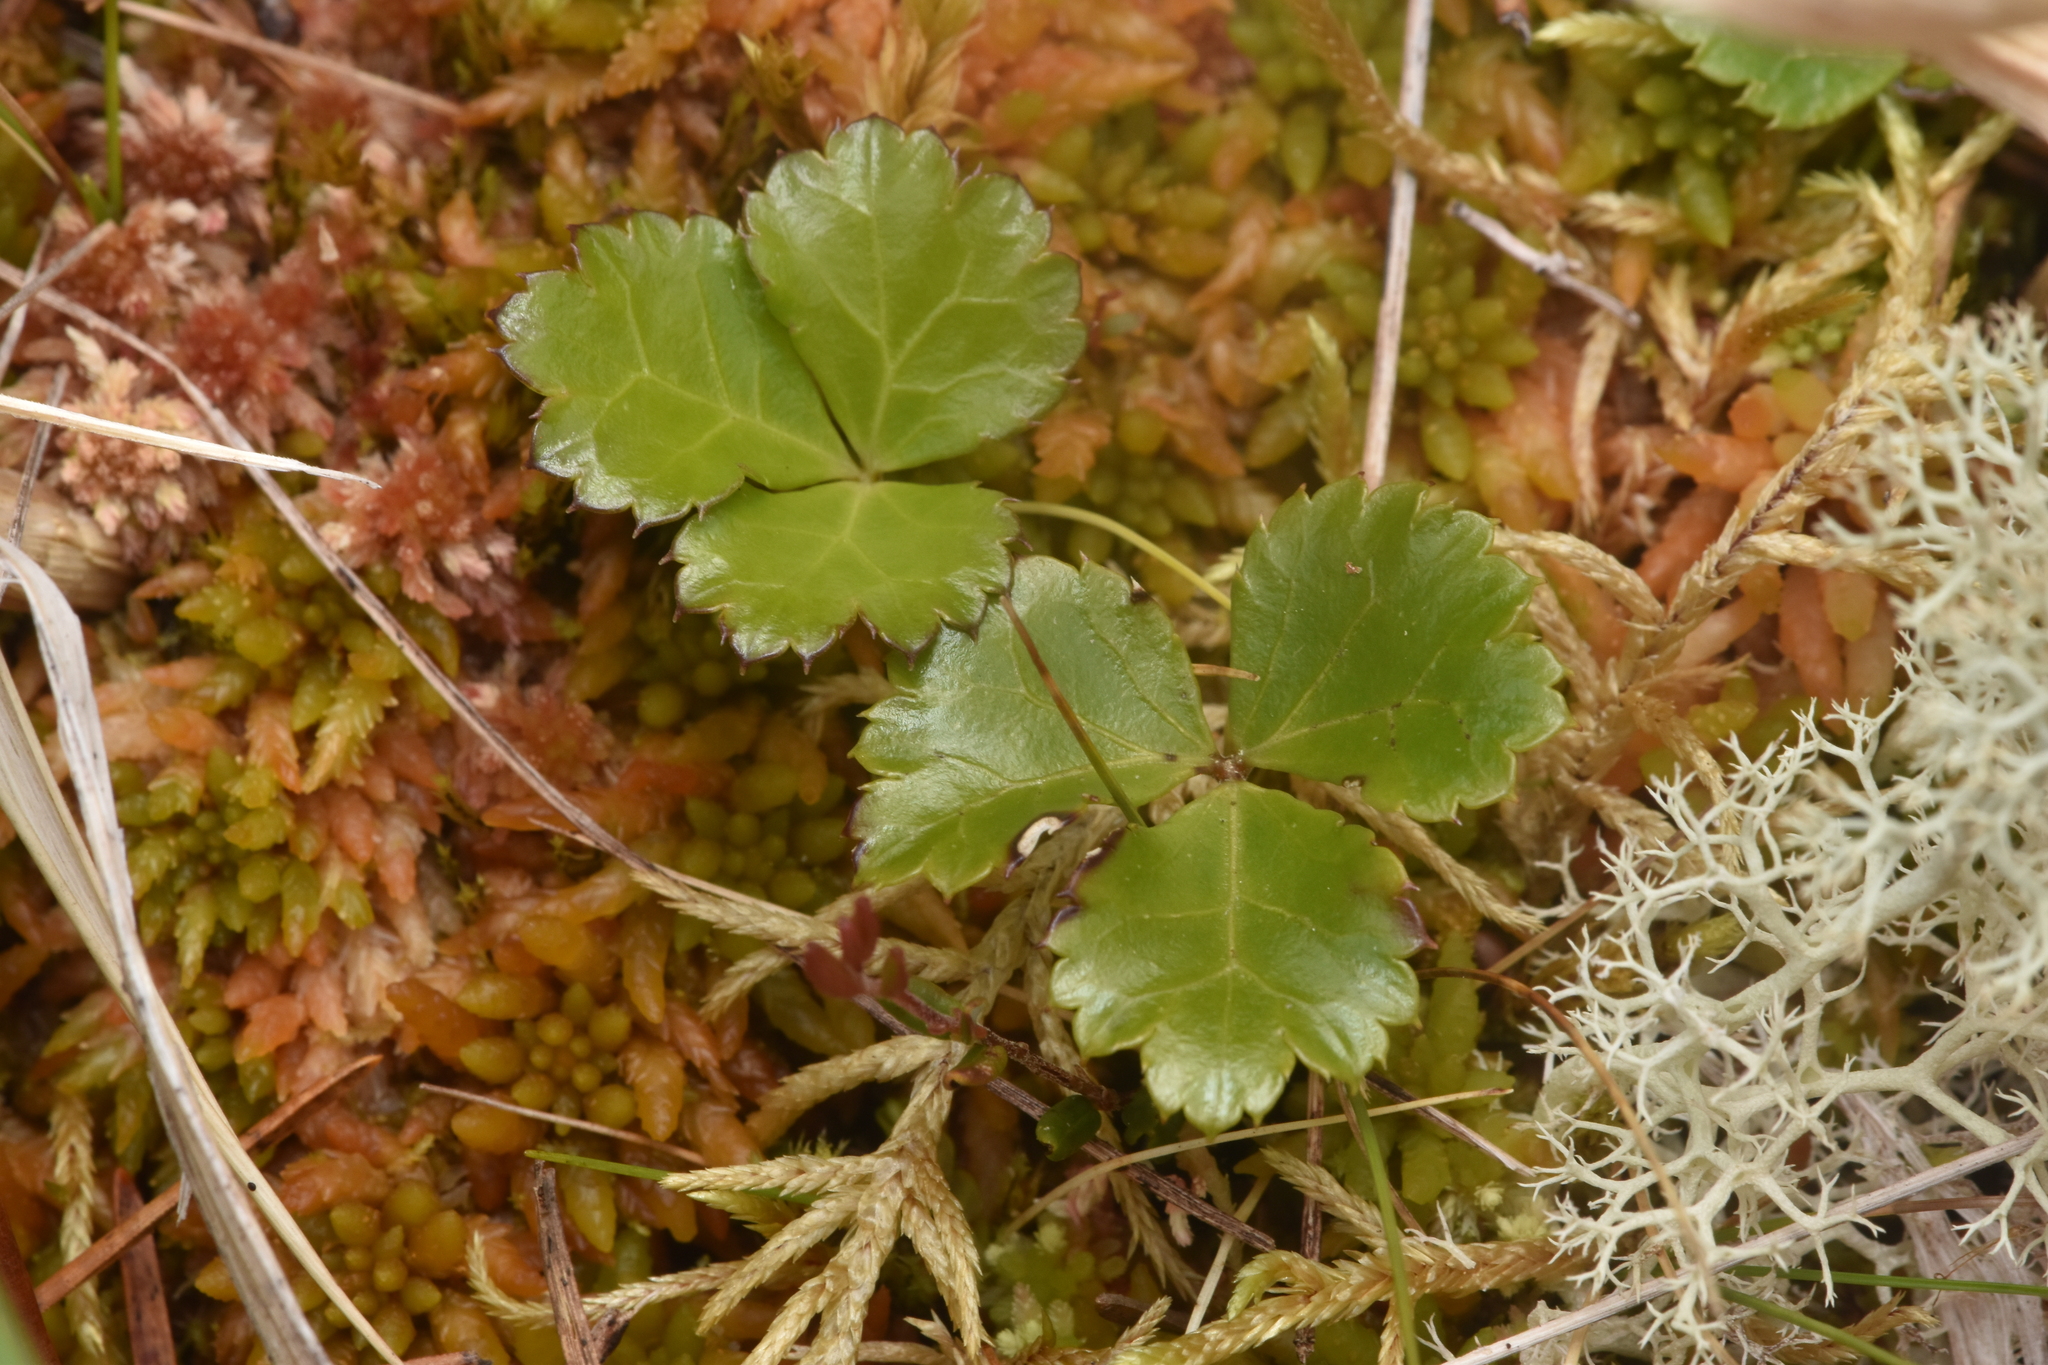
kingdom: Plantae
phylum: Tracheophyta
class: Magnoliopsida
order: Ranunculales
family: Ranunculaceae
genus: Coptis
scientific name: Coptis trifolia
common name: Canker-root
